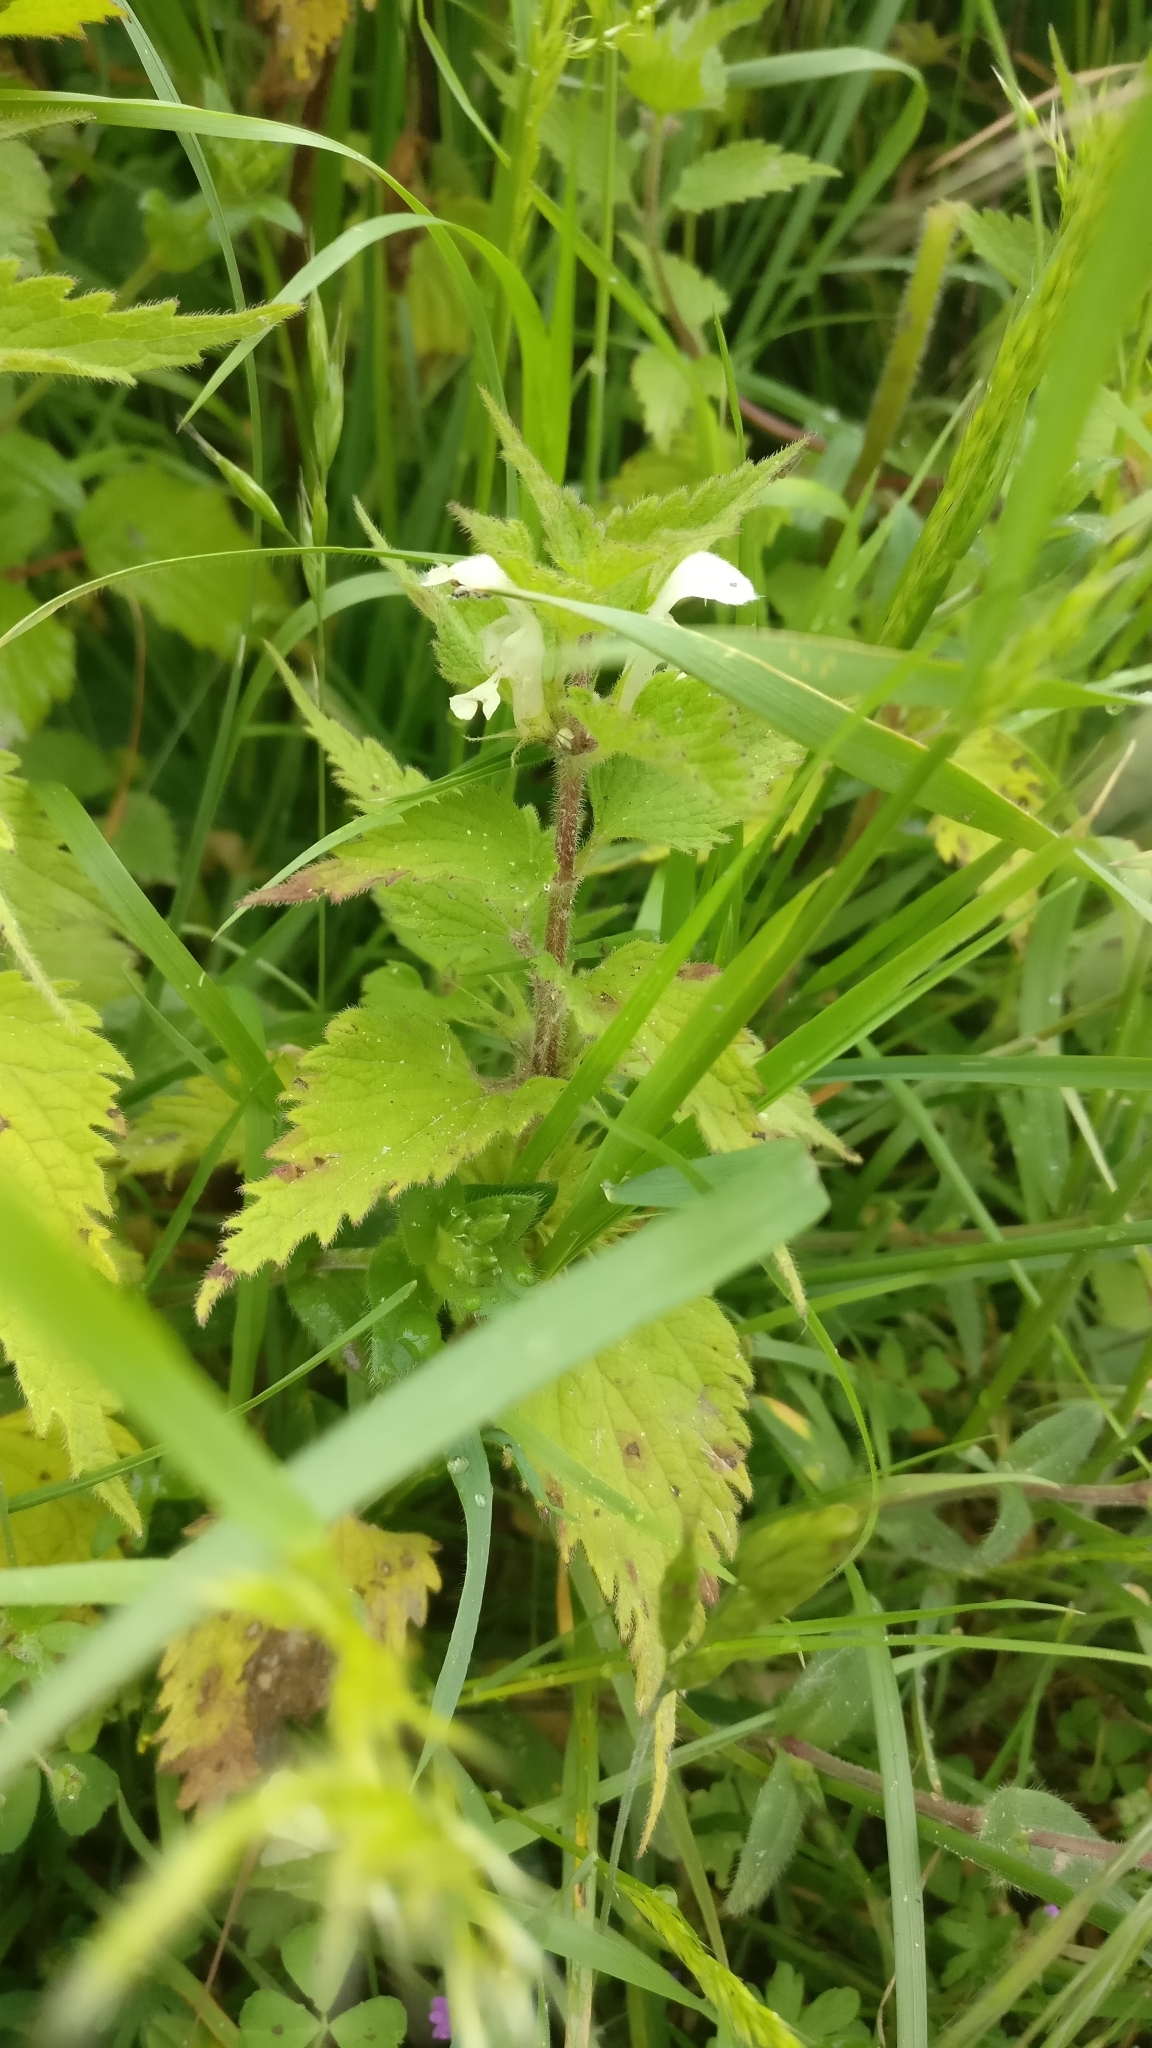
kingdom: Plantae
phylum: Tracheophyta
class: Magnoliopsida
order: Lamiales
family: Lamiaceae
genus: Lamium
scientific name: Lamium album
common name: White dead-nettle
